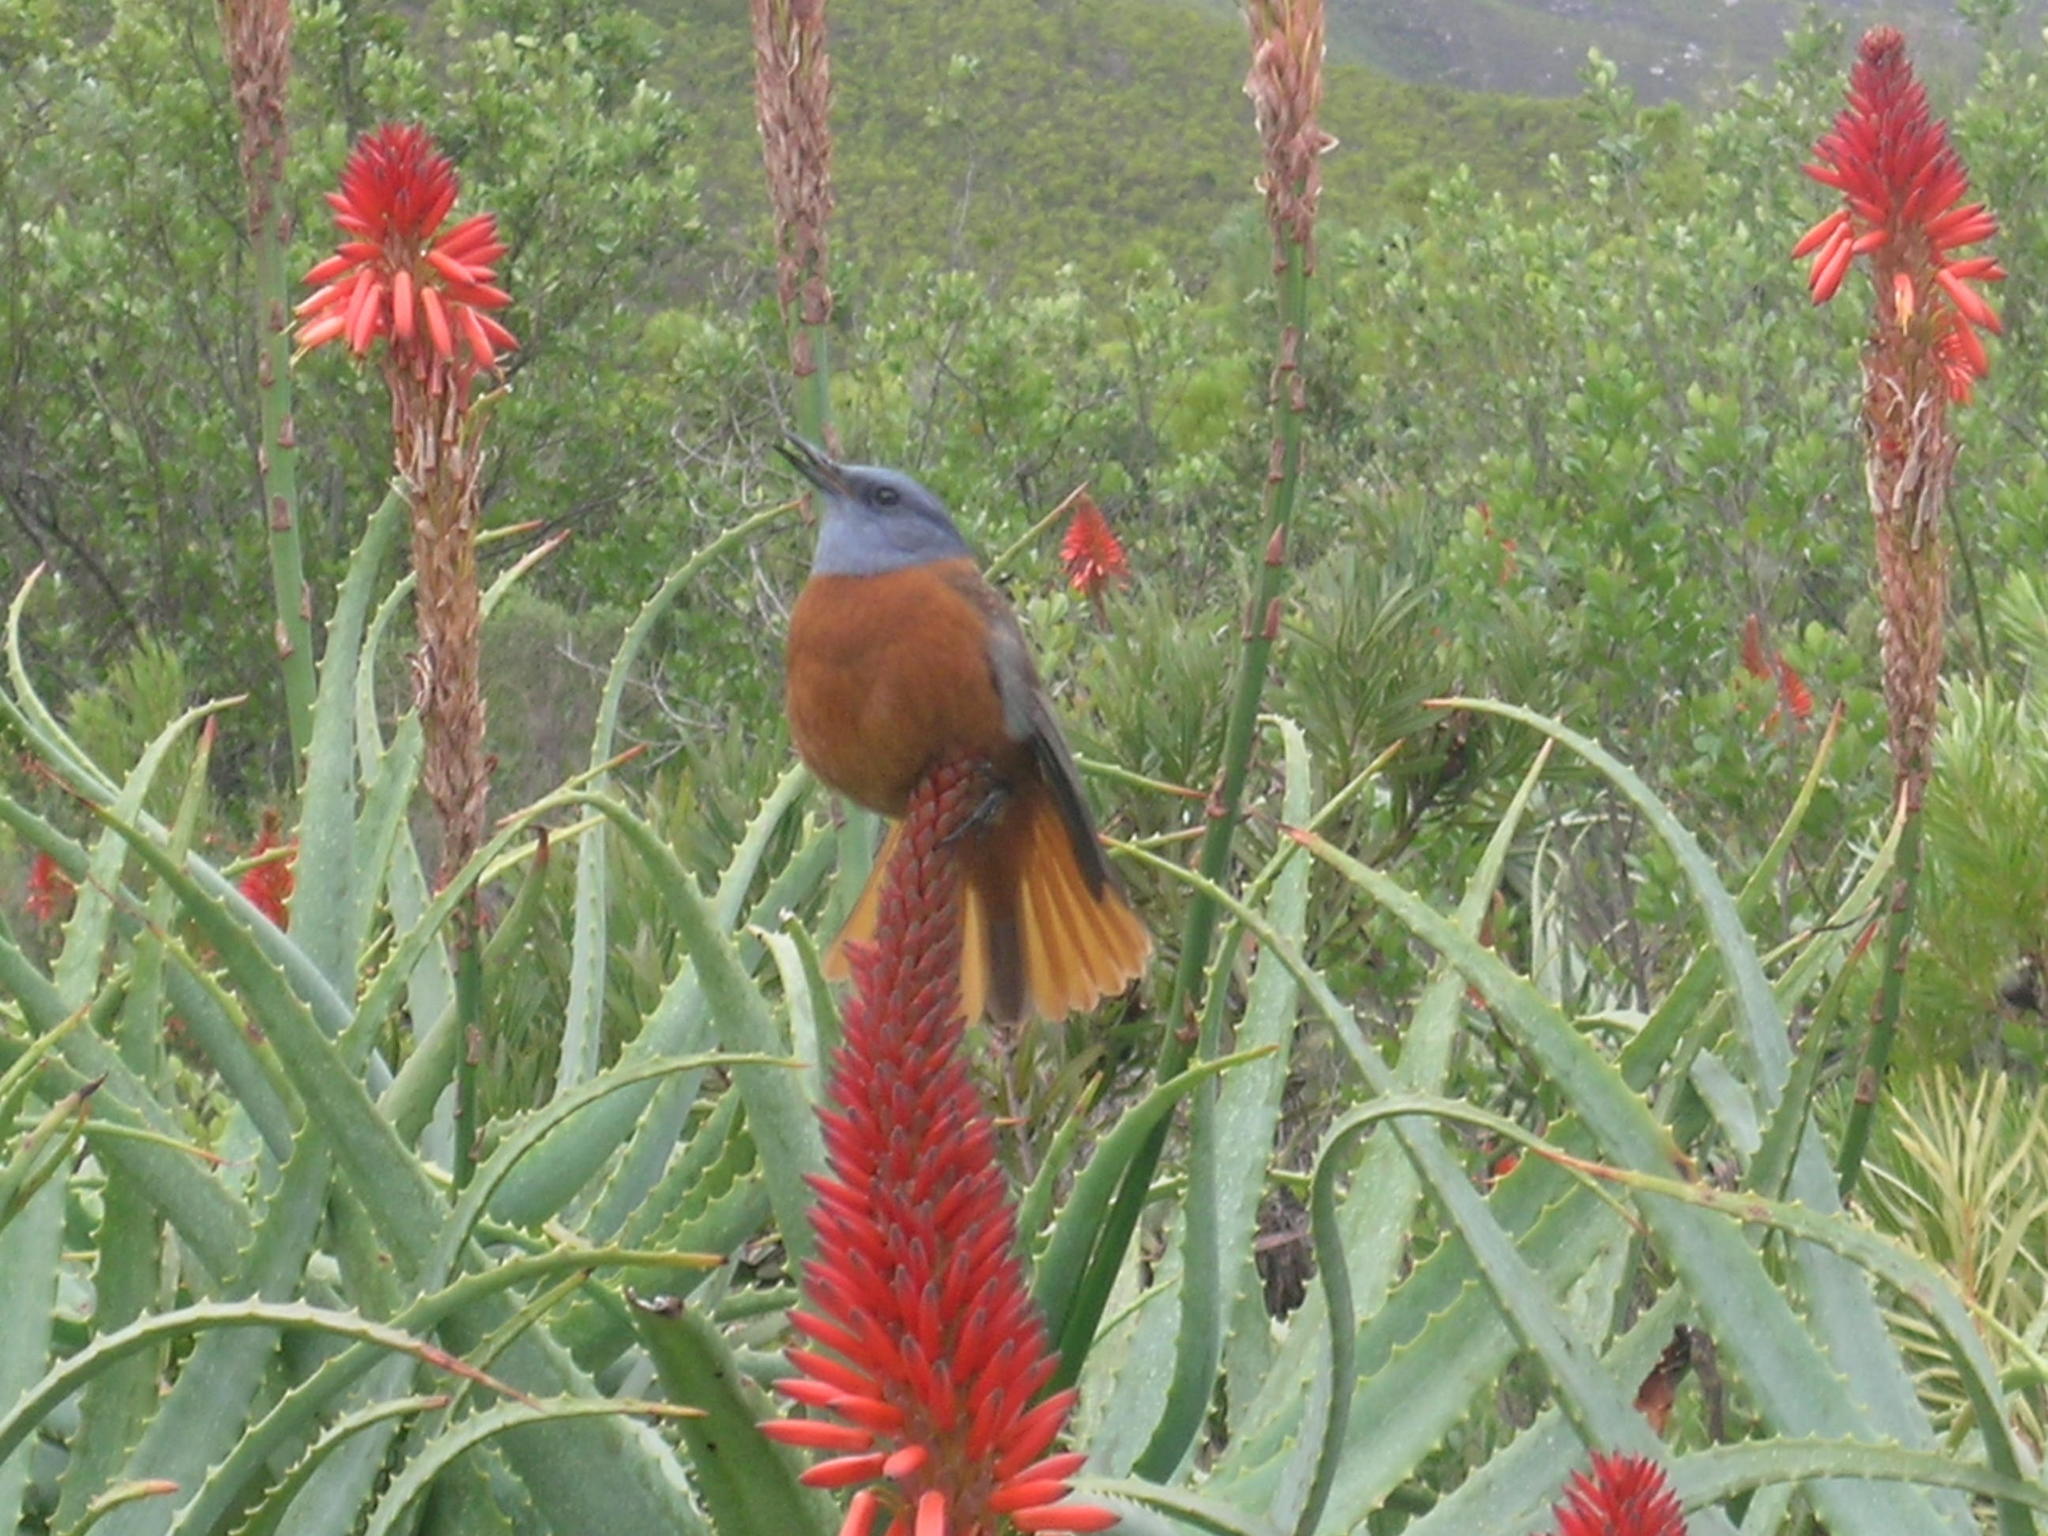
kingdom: Animalia
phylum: Chordata
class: Aves
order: Passeriformes
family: Muscicapidae
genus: Monticola
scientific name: Monticola rupestris
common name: Cape rock thrush
